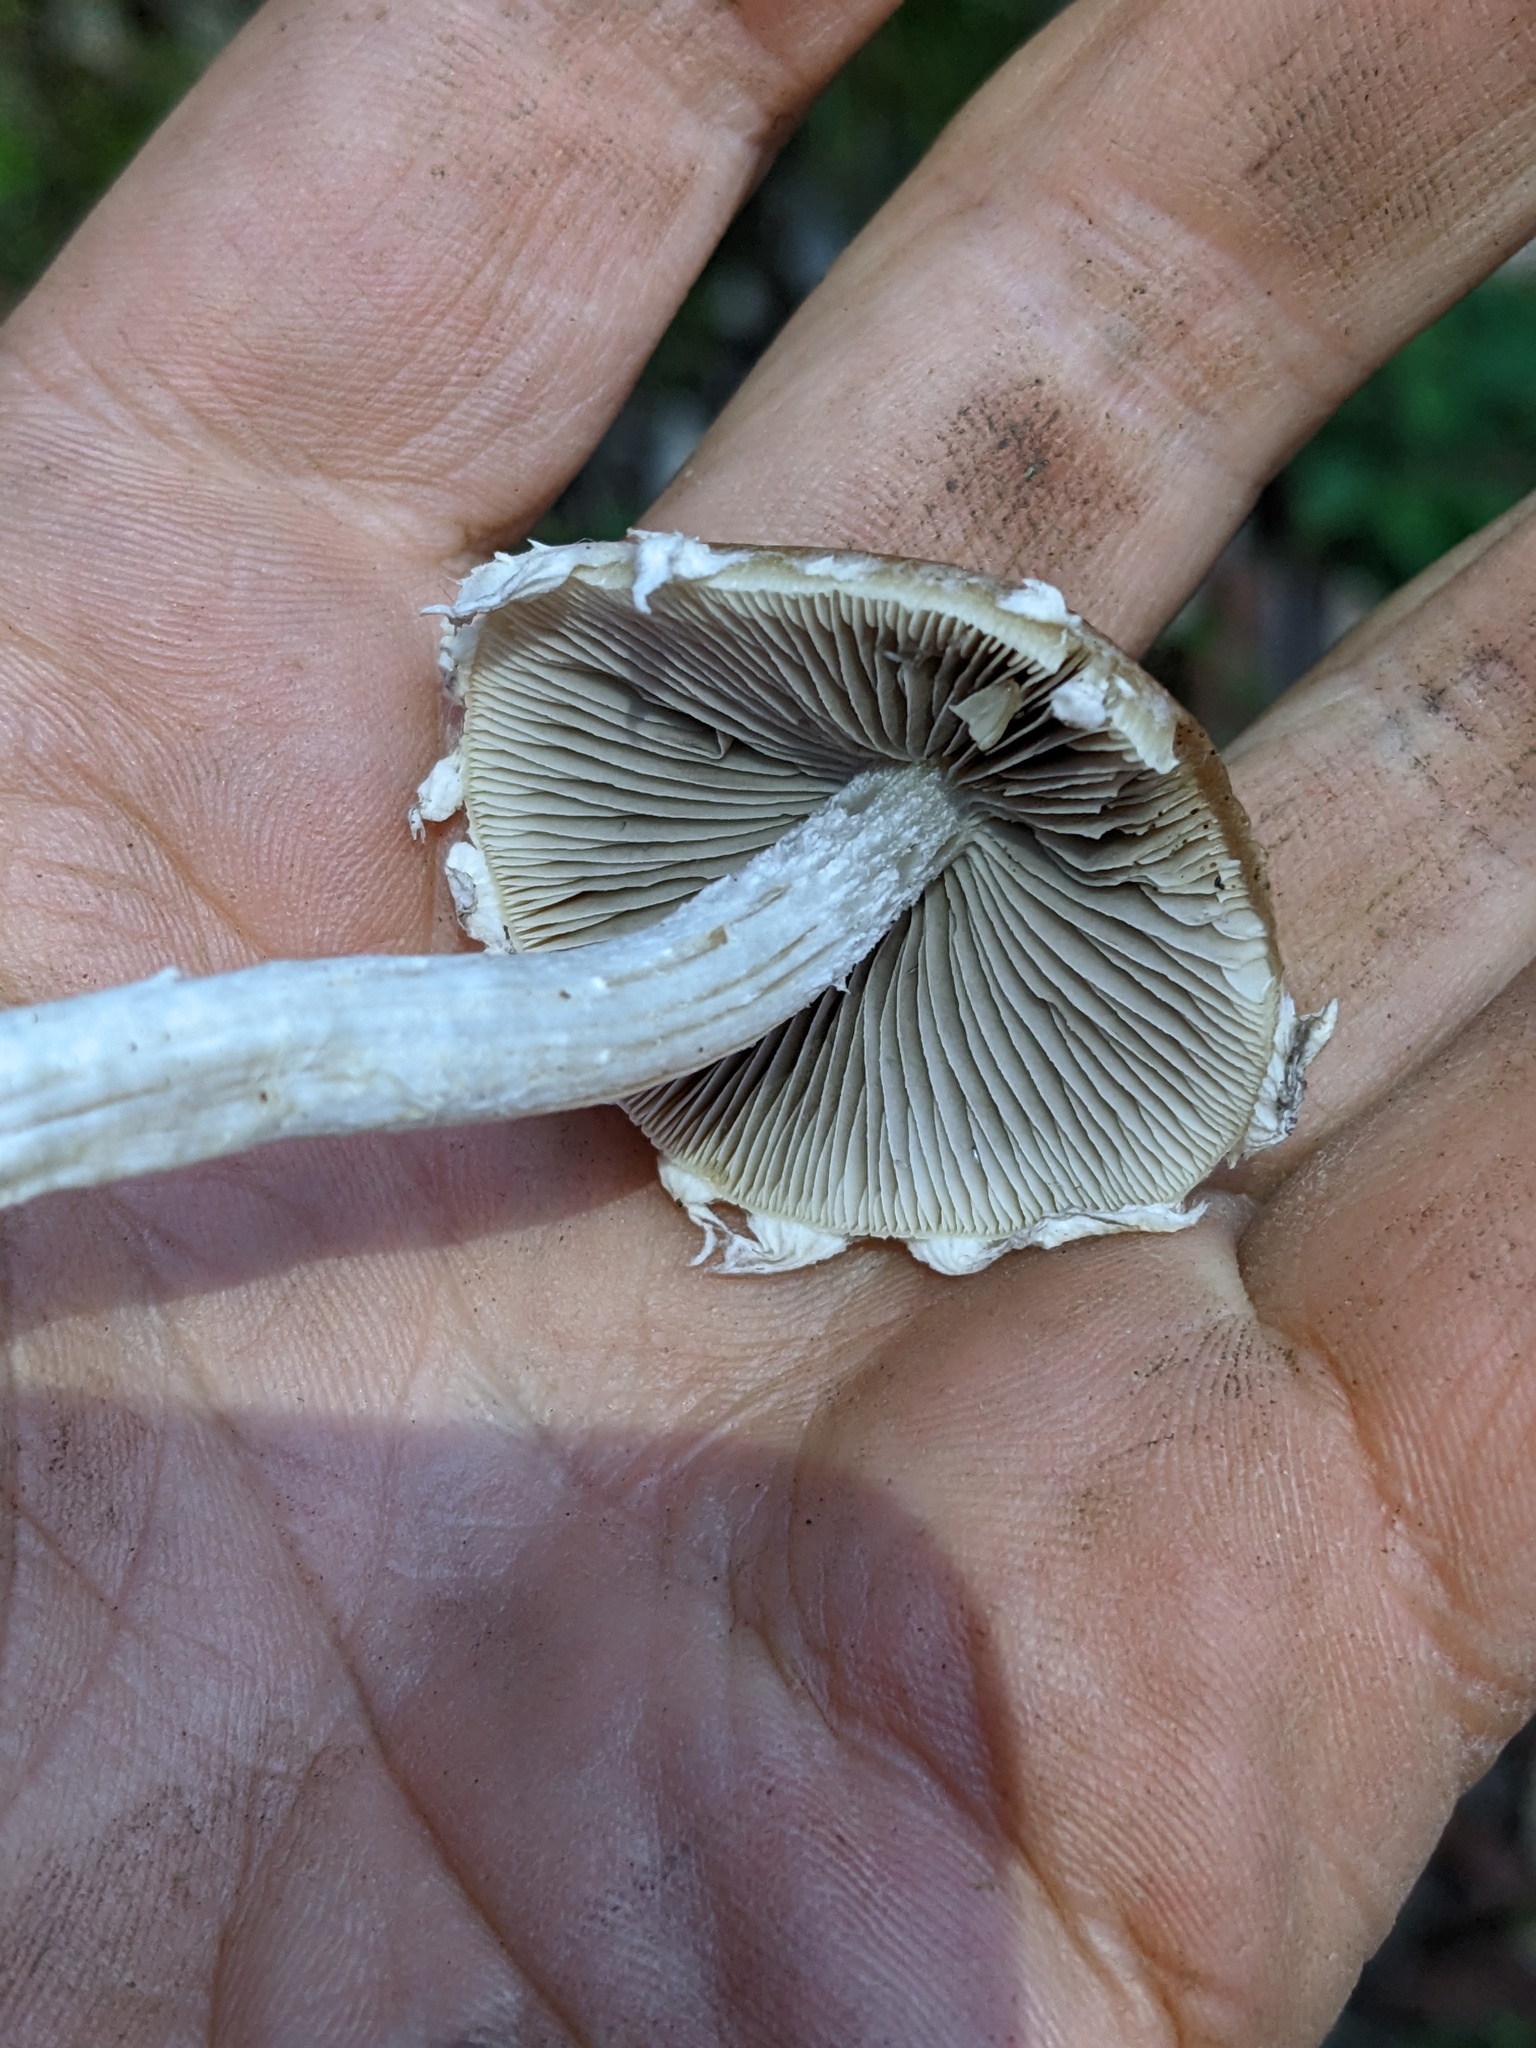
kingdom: Fungi
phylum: Basidiomycota
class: Agaricomycetes
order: Agaricales
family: Psathyrellaceae
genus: Candolleomyces
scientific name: Candolleomyces candolleanus
